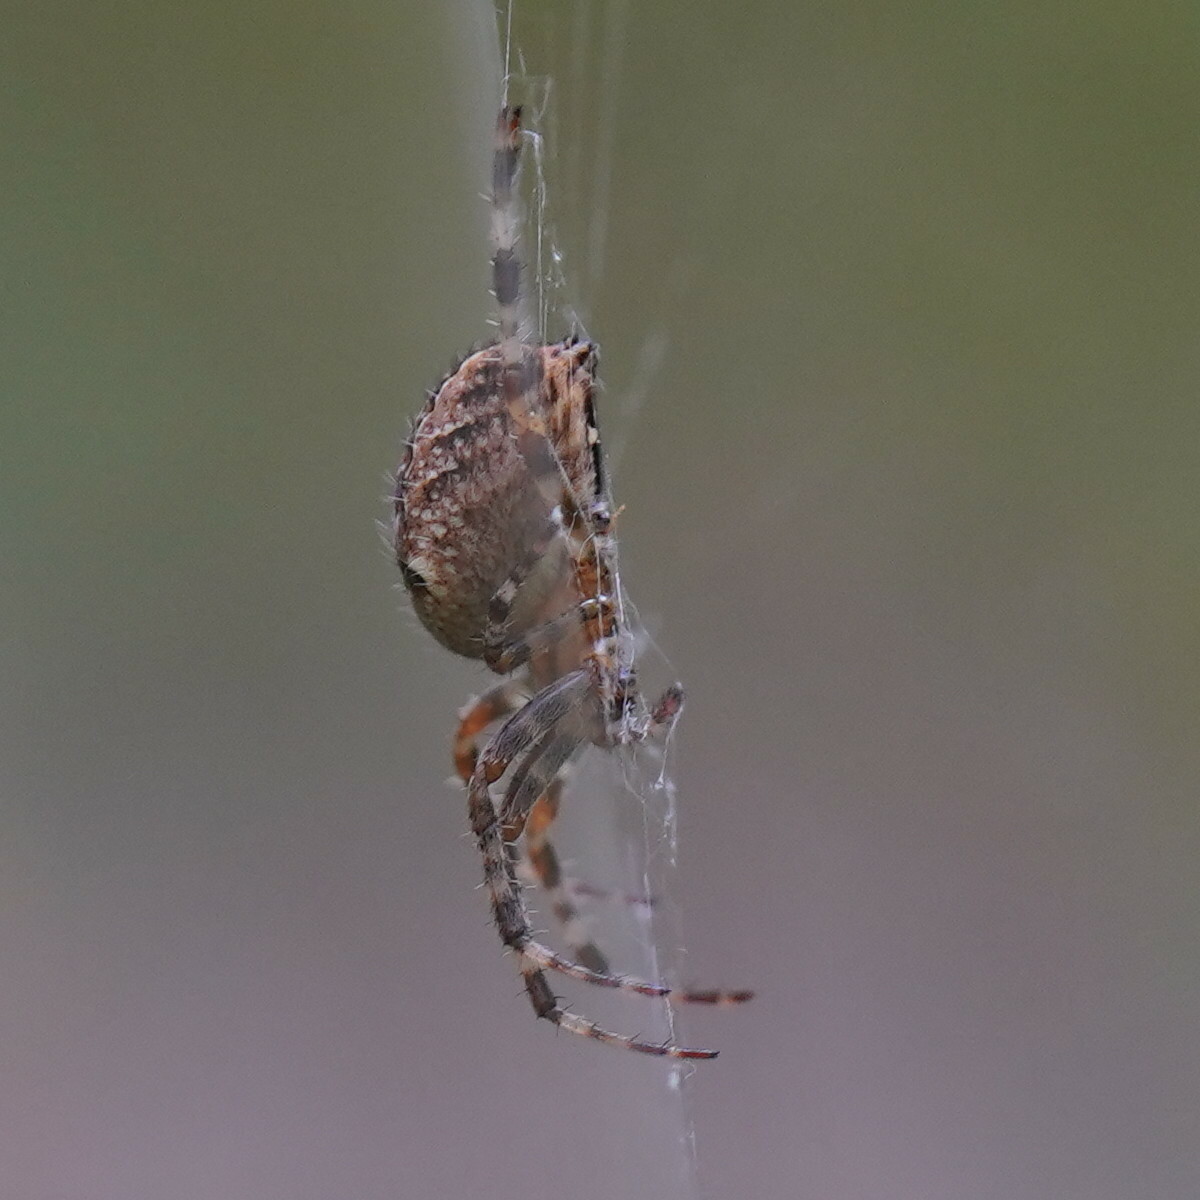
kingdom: Animalia
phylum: Arthropoda
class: Arachnida
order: Araneae
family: Araneidae
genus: Araneus
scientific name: Araneus diadematus
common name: Cross orbweaver
